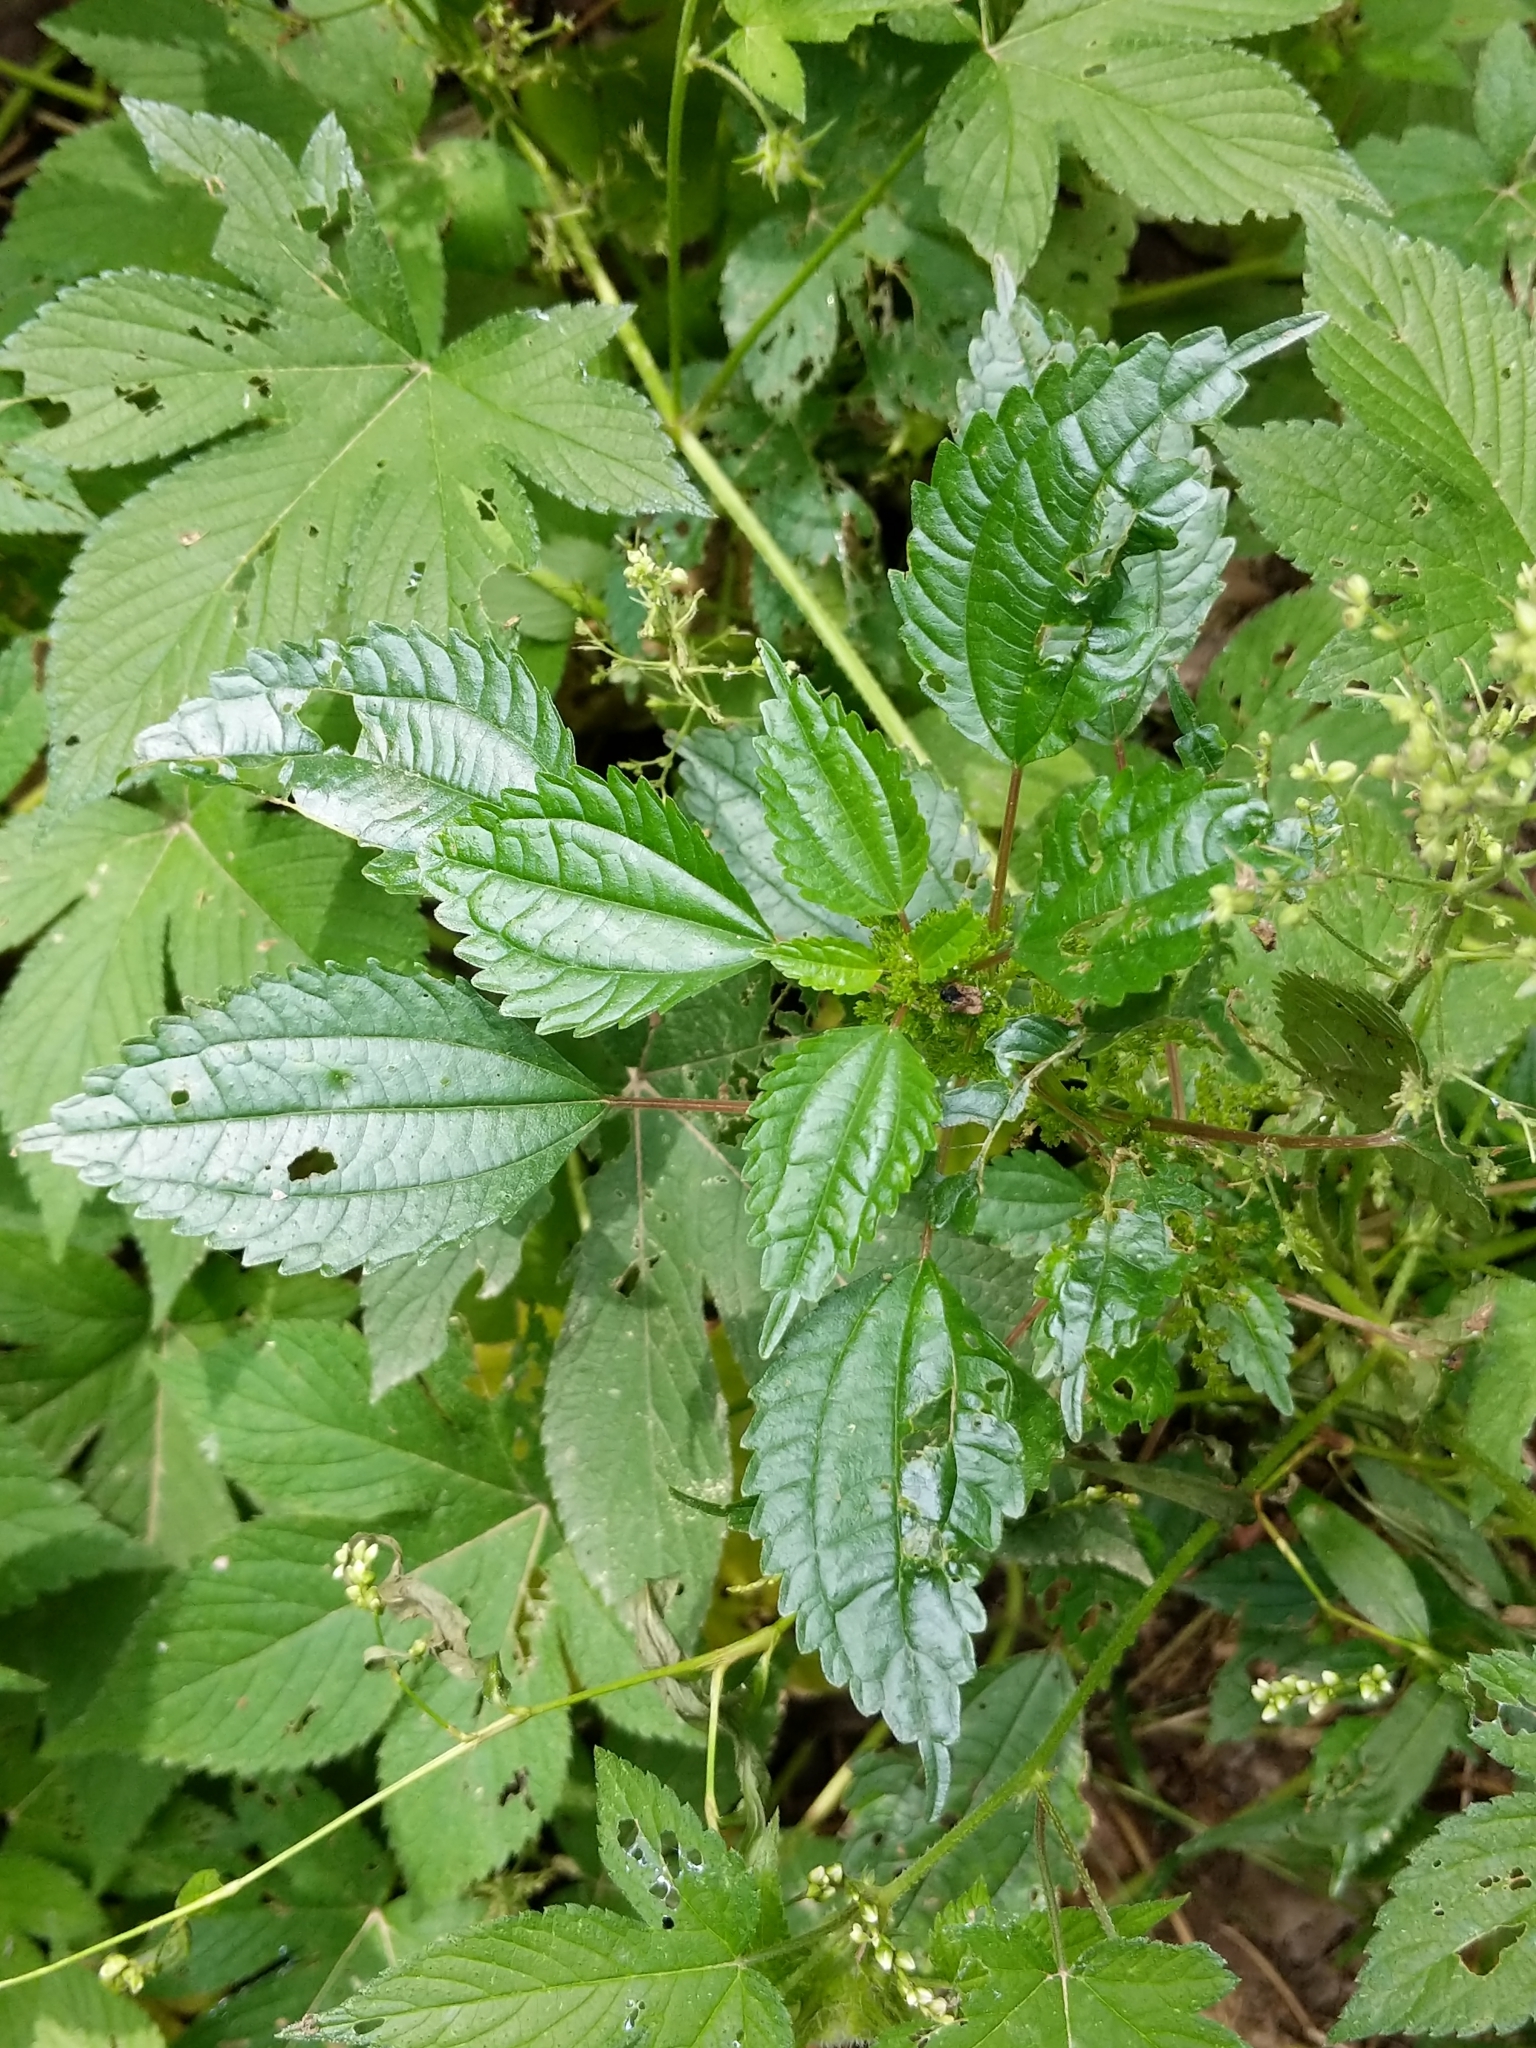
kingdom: Plantae
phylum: Tracheophyta
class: Magnoliopsida
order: Rosales
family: Urticaceae
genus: Pilea
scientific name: Pilea pumila
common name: Clearweed
